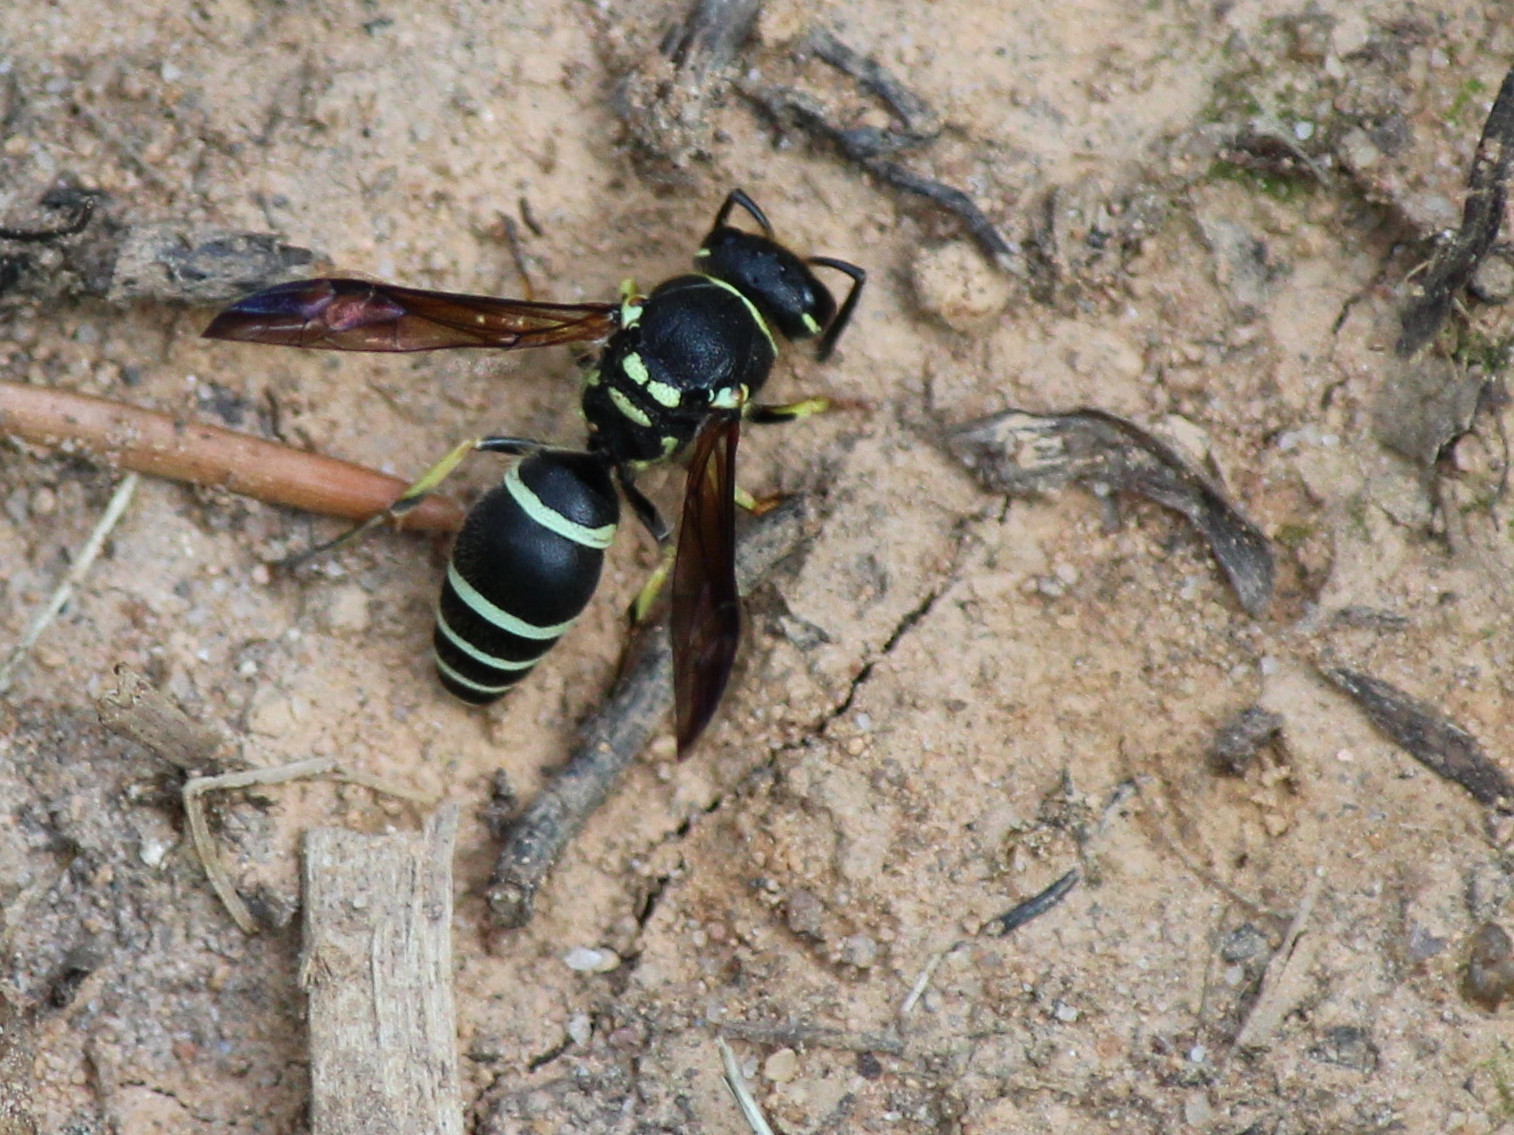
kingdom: Animalia
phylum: Arthropoda
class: Insecta
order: Hymenoptera
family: Vespidae
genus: Ancistrocerus
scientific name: Ancistrocerus catskill
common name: Vespid wasp
